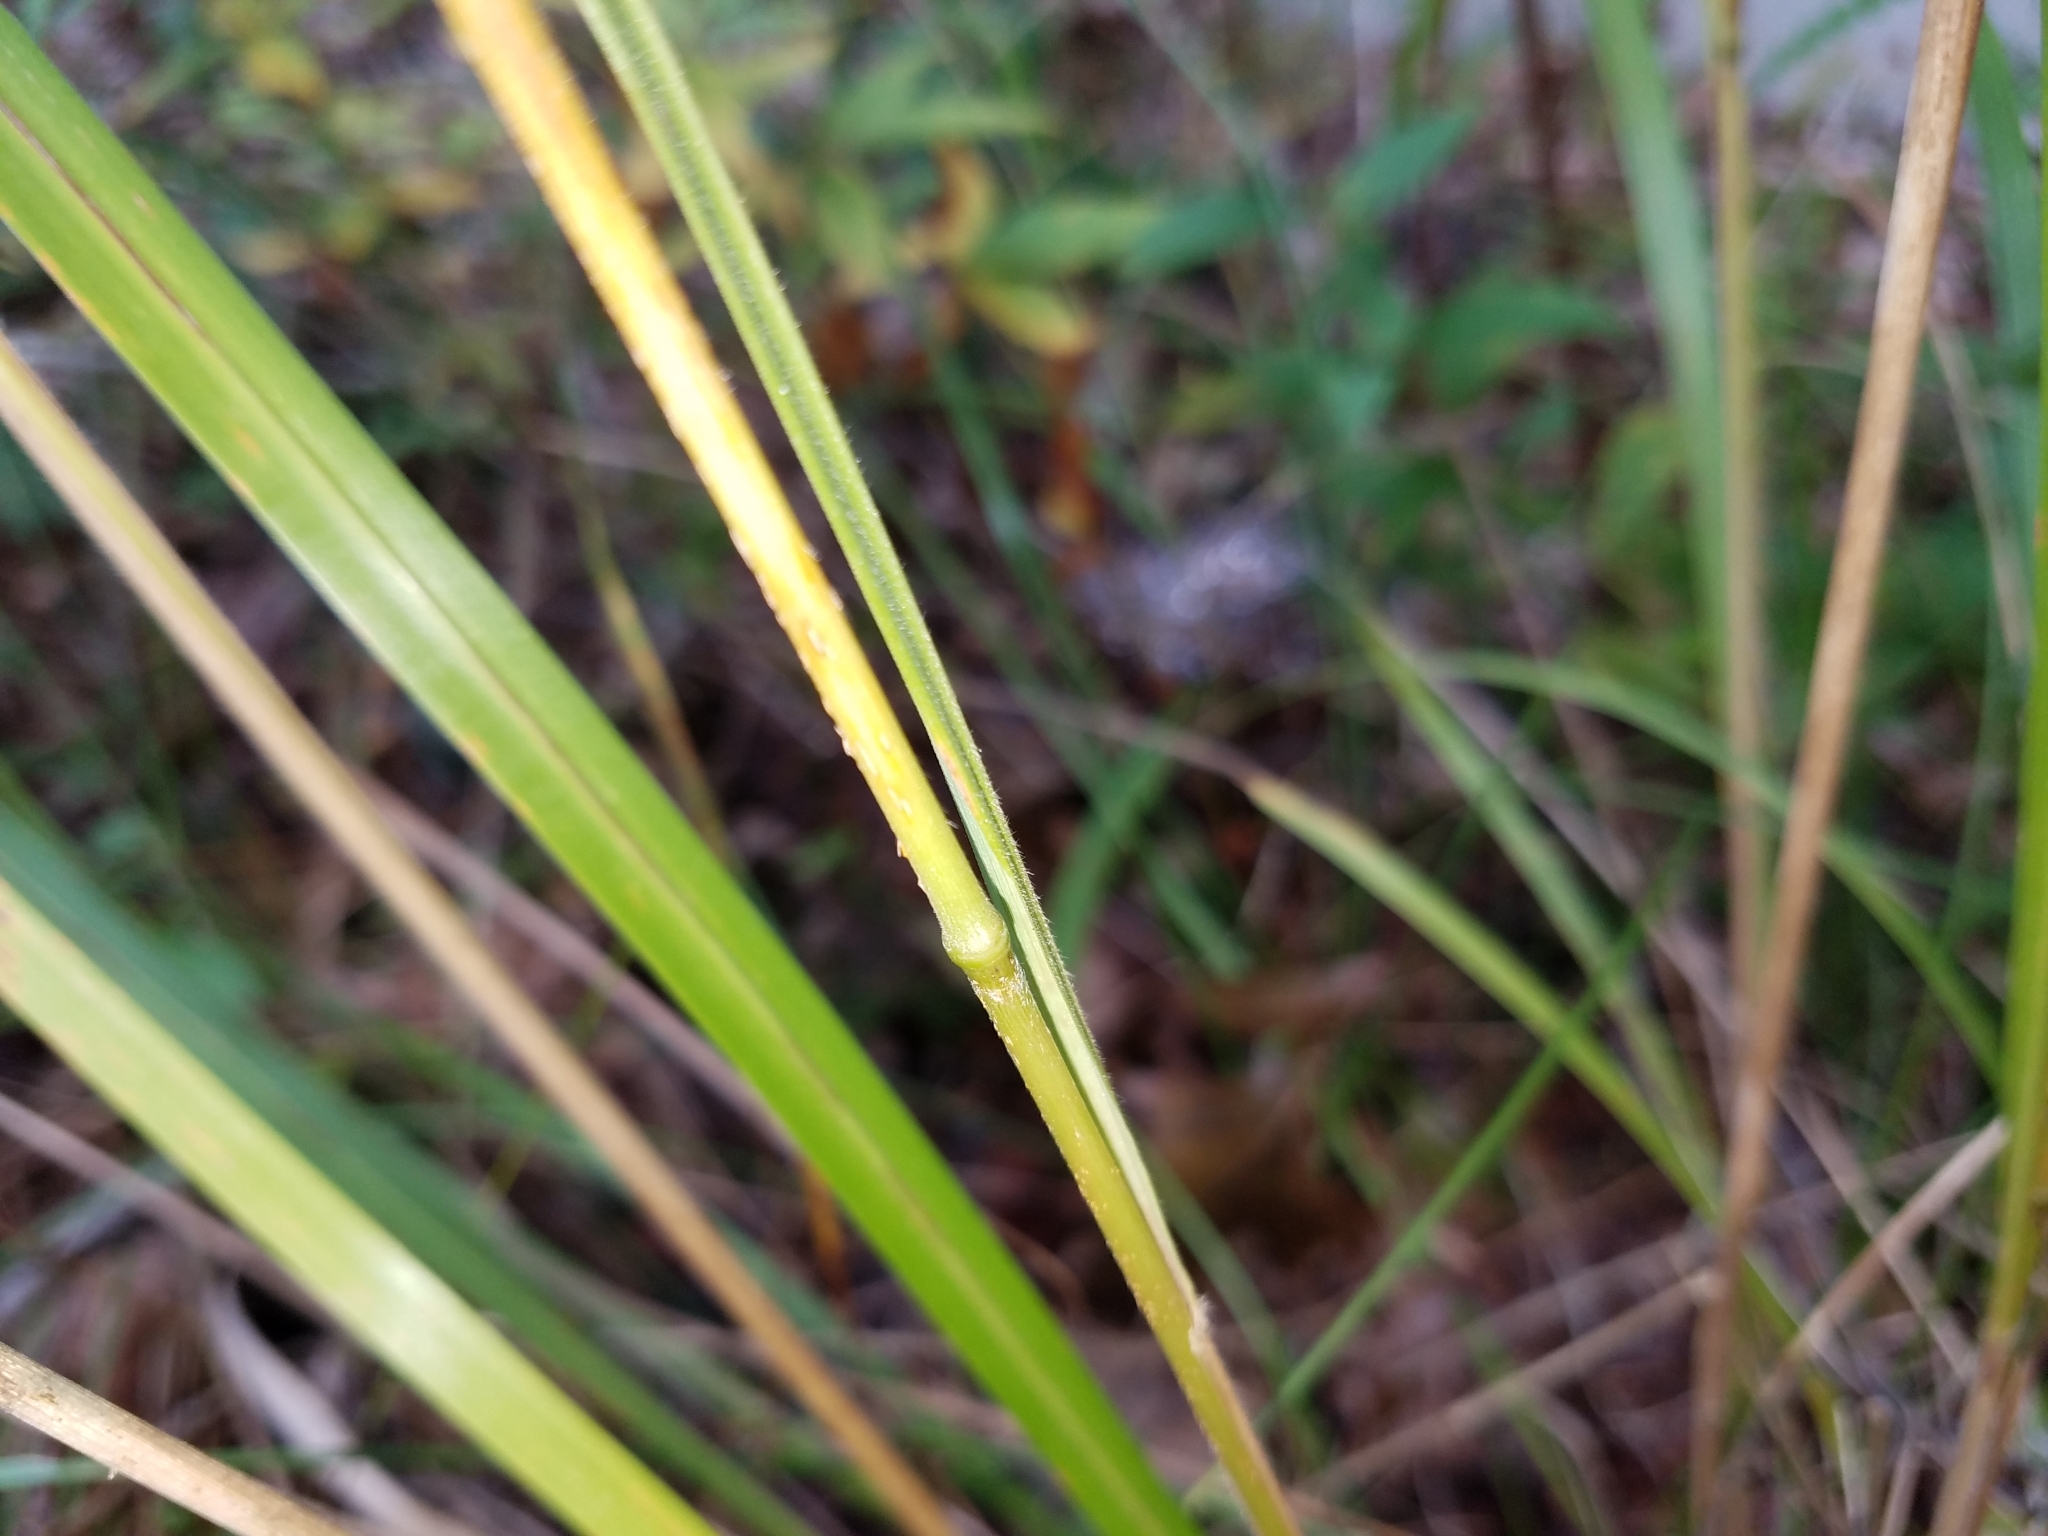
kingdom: Plantae
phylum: Tracheophyta
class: Liliopsida
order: Poales
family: Poaceae
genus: Agrostis
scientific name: Agrostis capillaris
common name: Colonial bentgrass
